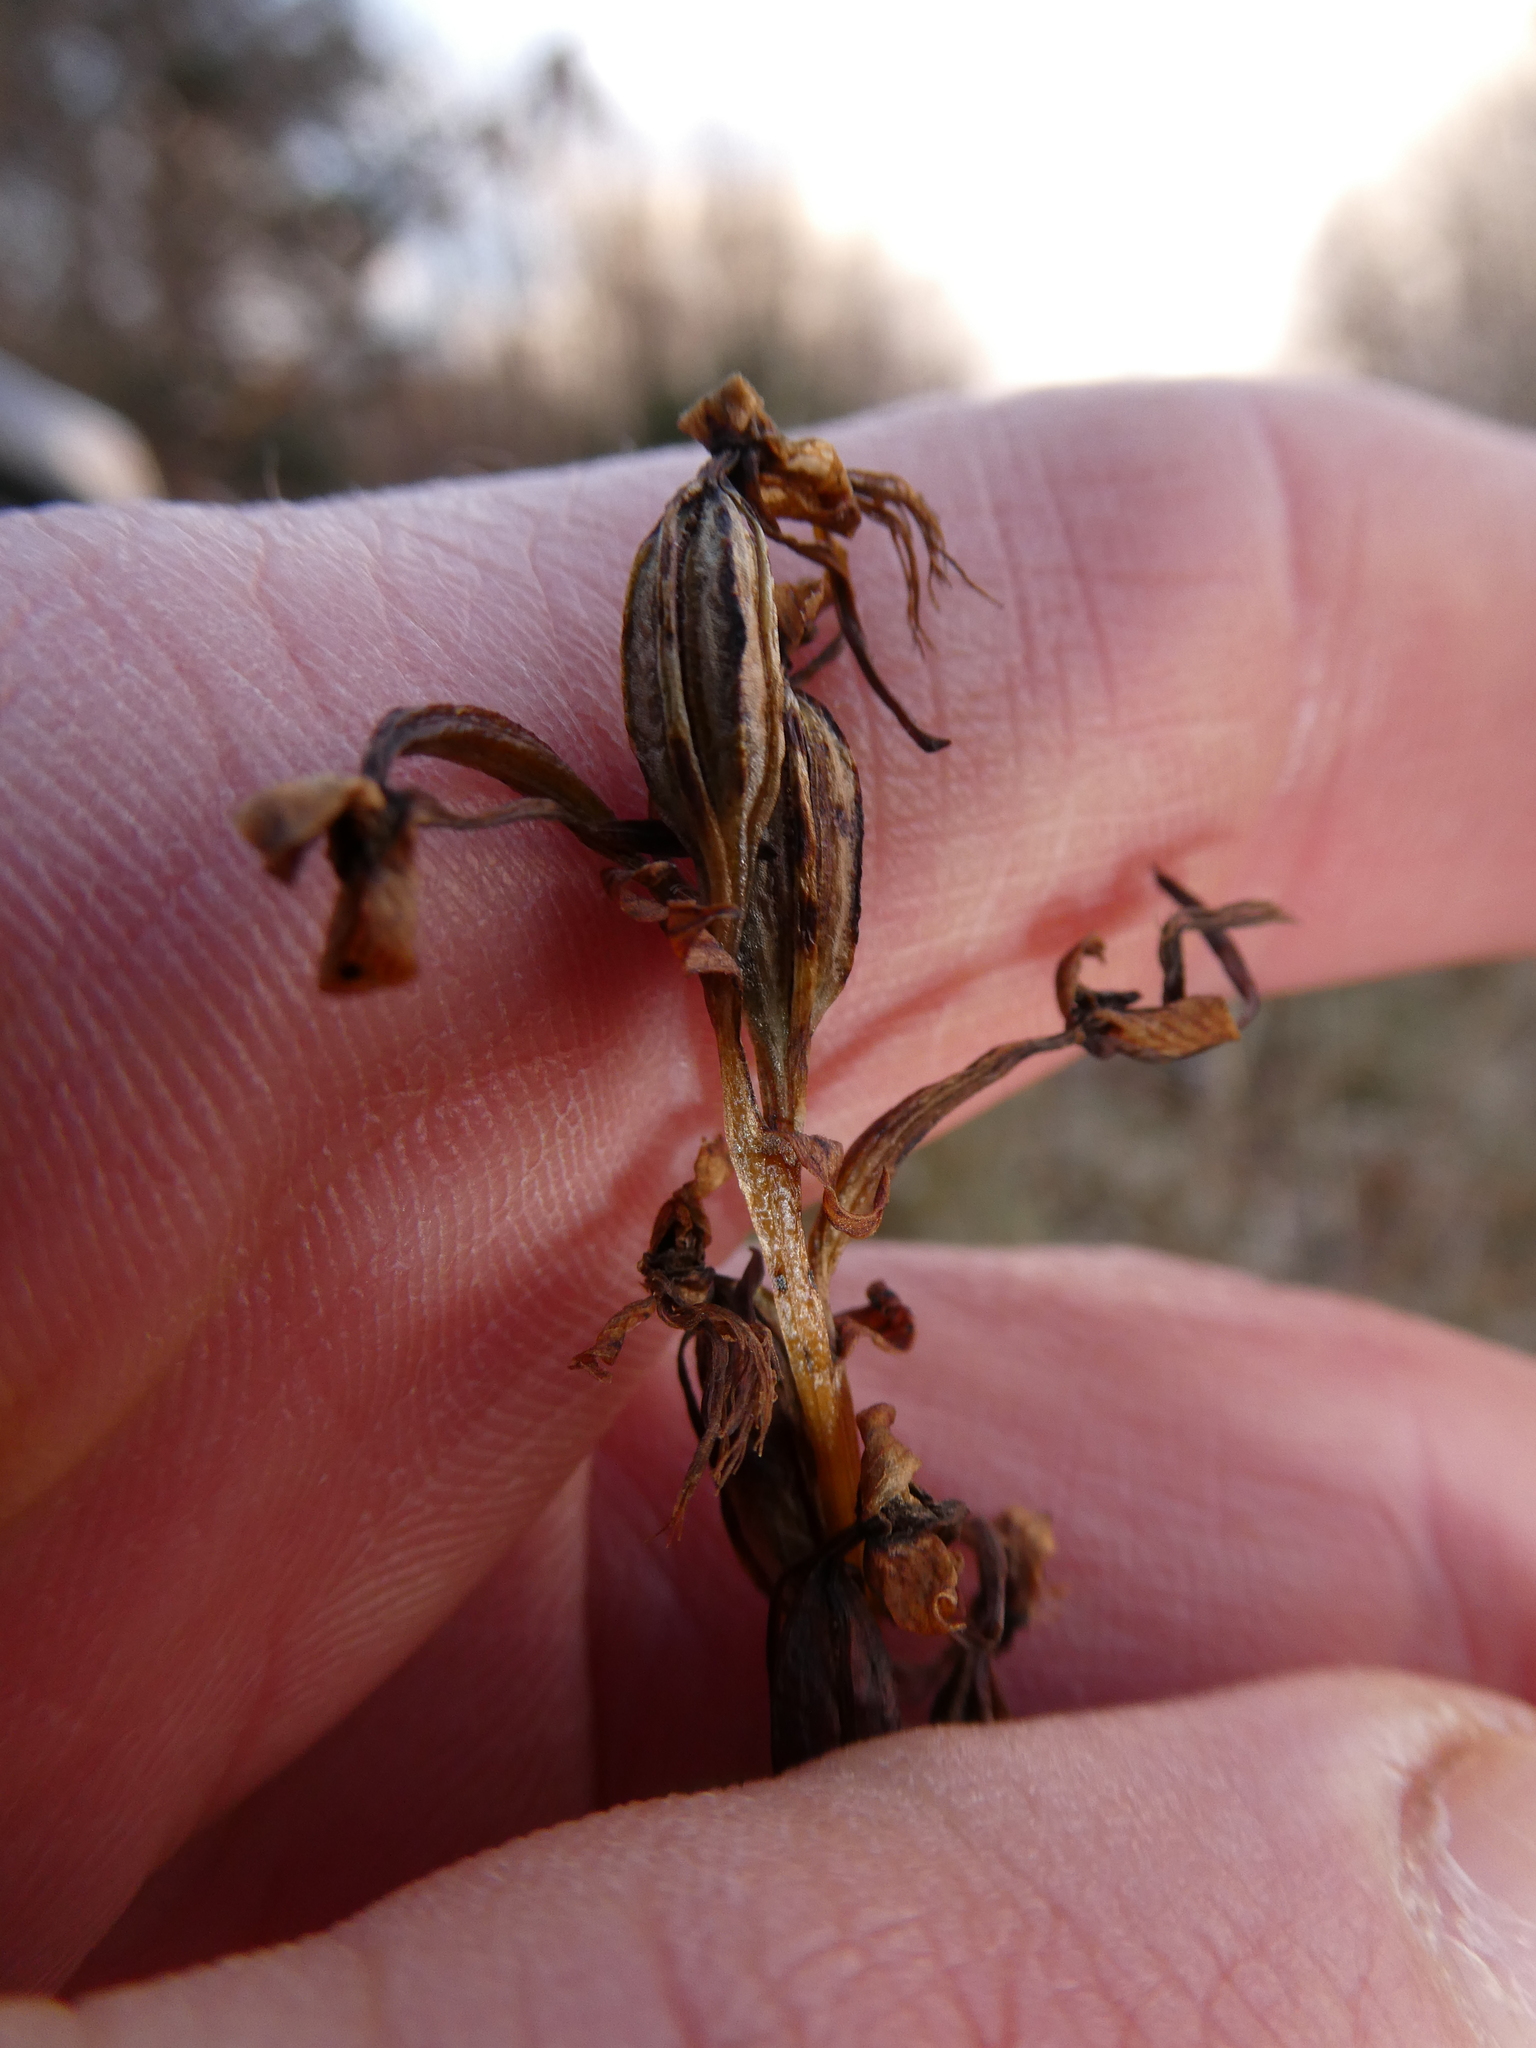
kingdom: Plantae
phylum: Tracheophyta
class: Liliopsida
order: Asparagales
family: Orchidaceae
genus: Platanthera
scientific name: Platanthera lacera
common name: Green fringed orchid
